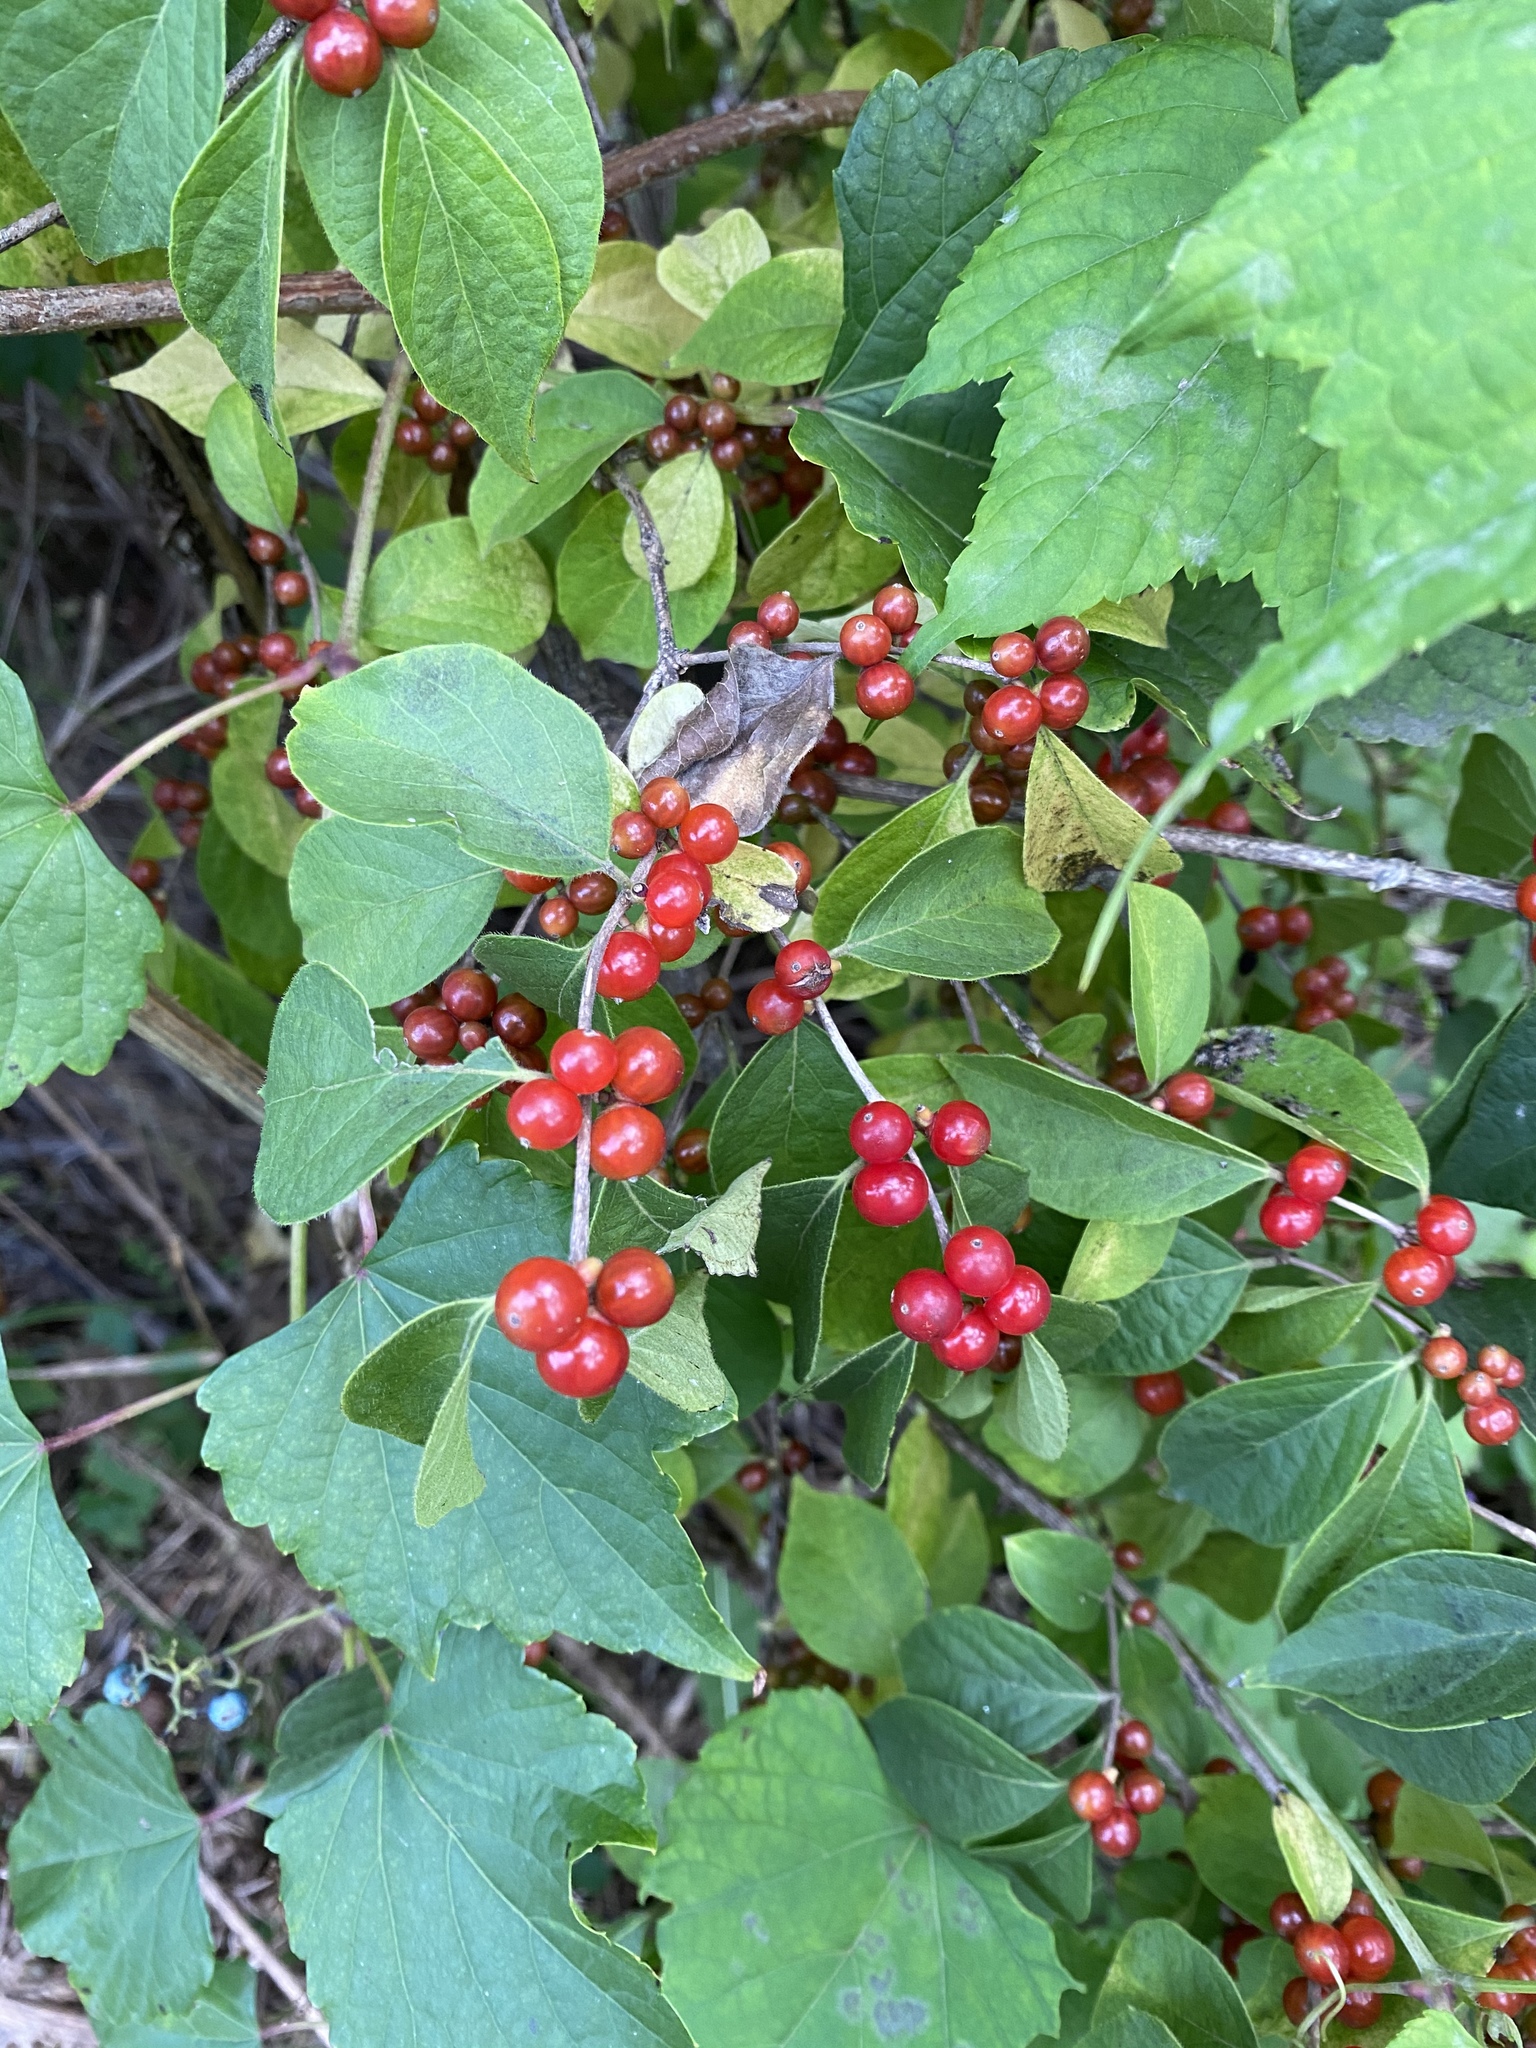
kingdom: Plantae
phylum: Tracheophyta
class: Magnoliopsida
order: Dipsacales
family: Caprifoliaceae
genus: Lonicera
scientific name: Lonicera maackii
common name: Amur honeysuckle
